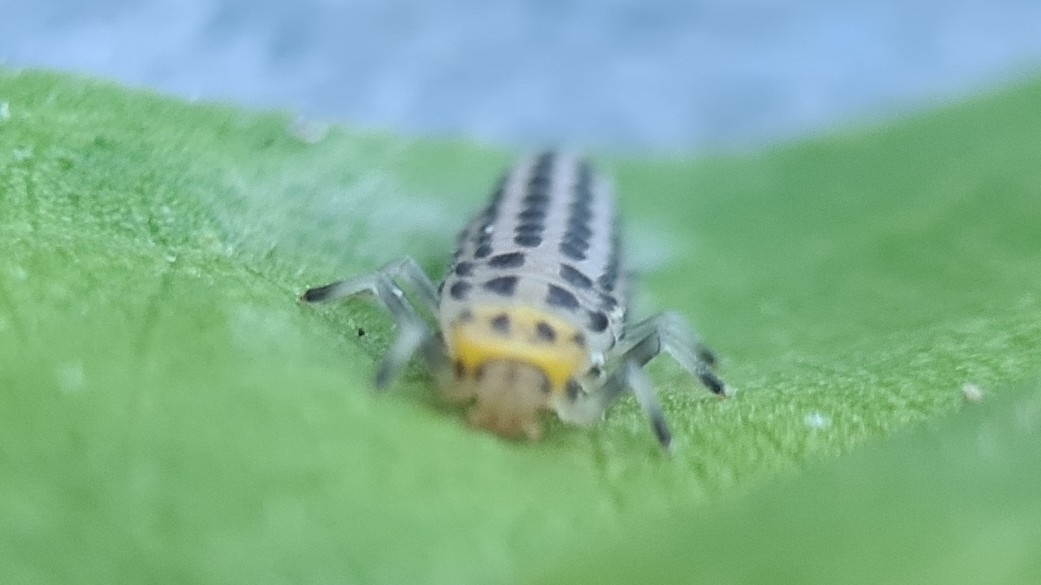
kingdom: Animalia
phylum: Arthropoda
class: Insecta
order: Coleoptera
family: Coccinellidae
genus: Illeis
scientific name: Illeis galbula
